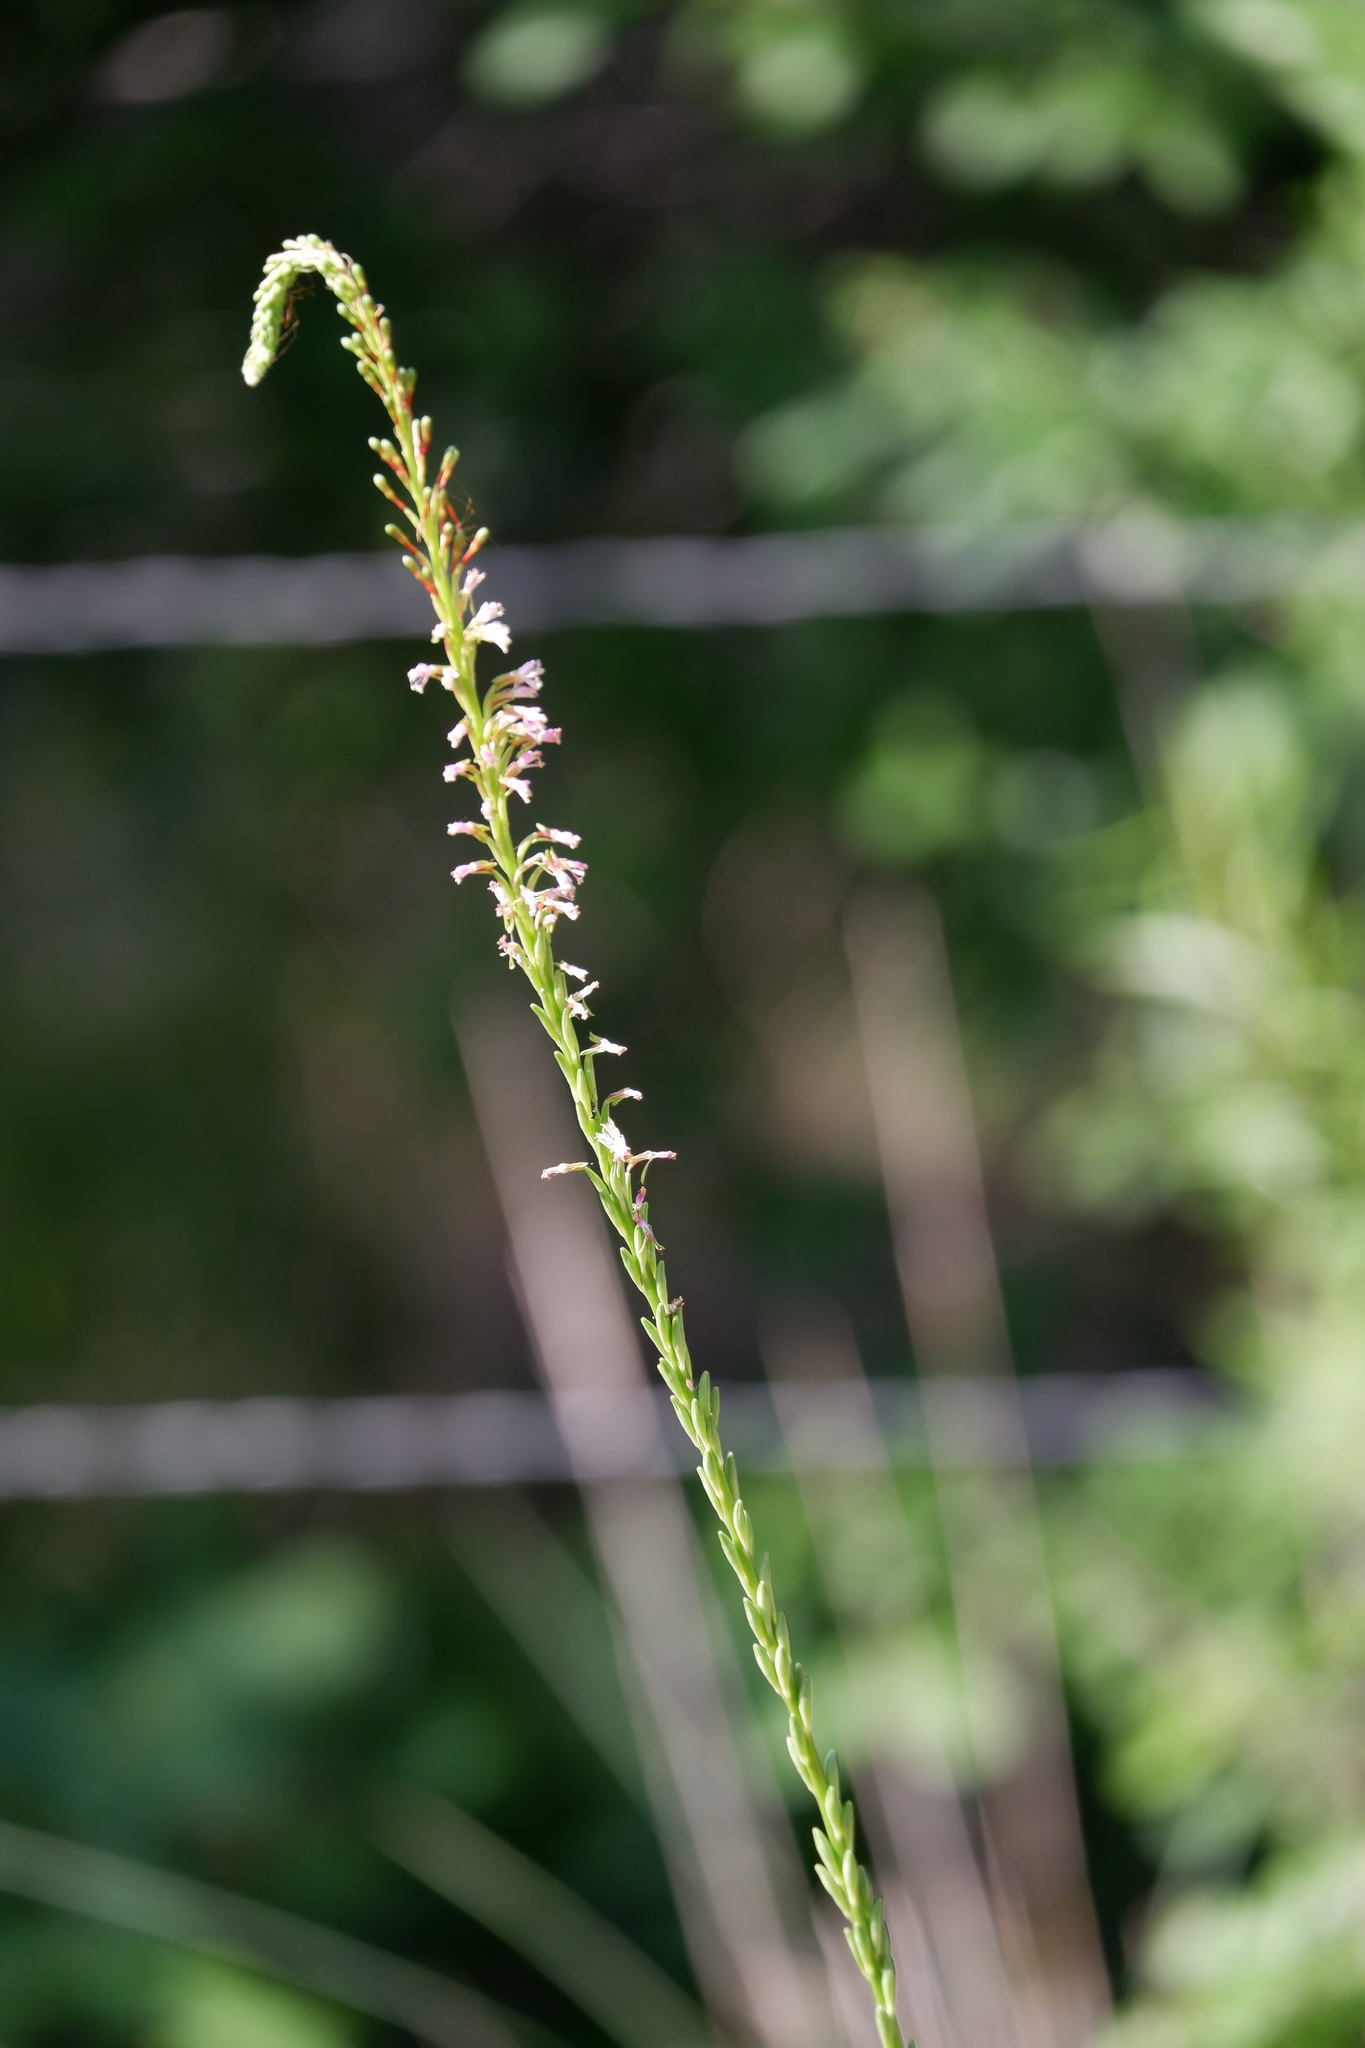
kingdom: Plantae
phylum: Tracheophyta
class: Magnoliopsida
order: Myrtales
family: Onagraceae
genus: Oenothera
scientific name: Oenothera curtiflora
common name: Velvetweed
